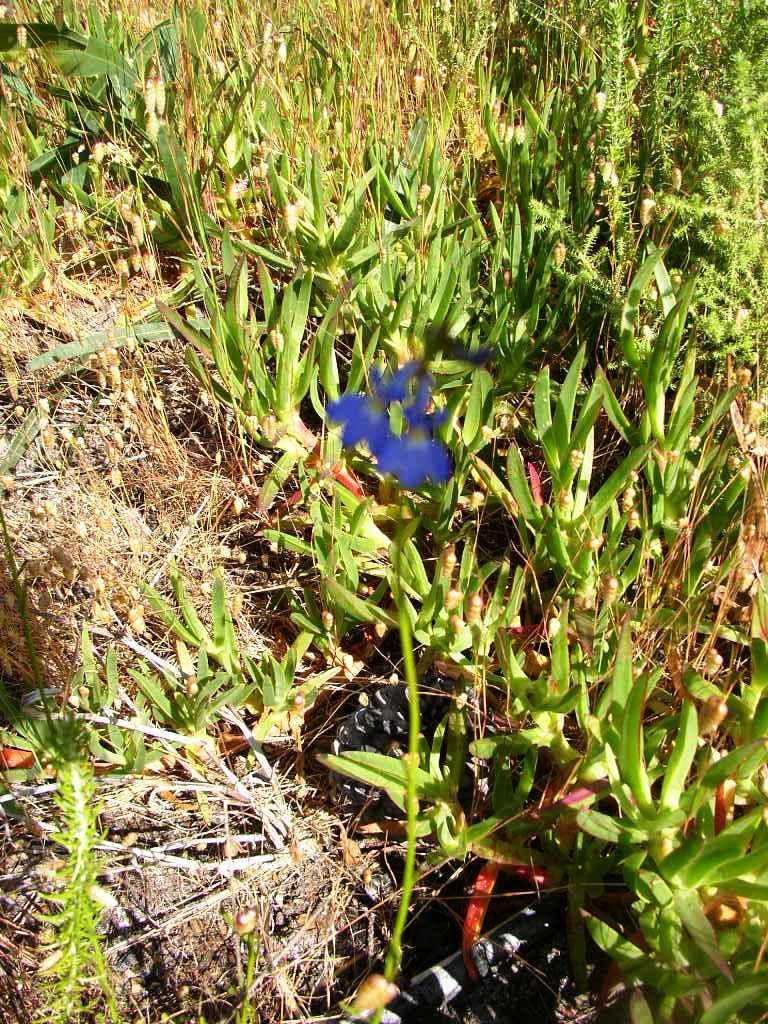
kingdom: Plantae
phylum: Tracheophyta
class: Magnoliopsida
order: Asterales
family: Campanulaceae
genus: Lobelia
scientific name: Lobelia comosa
